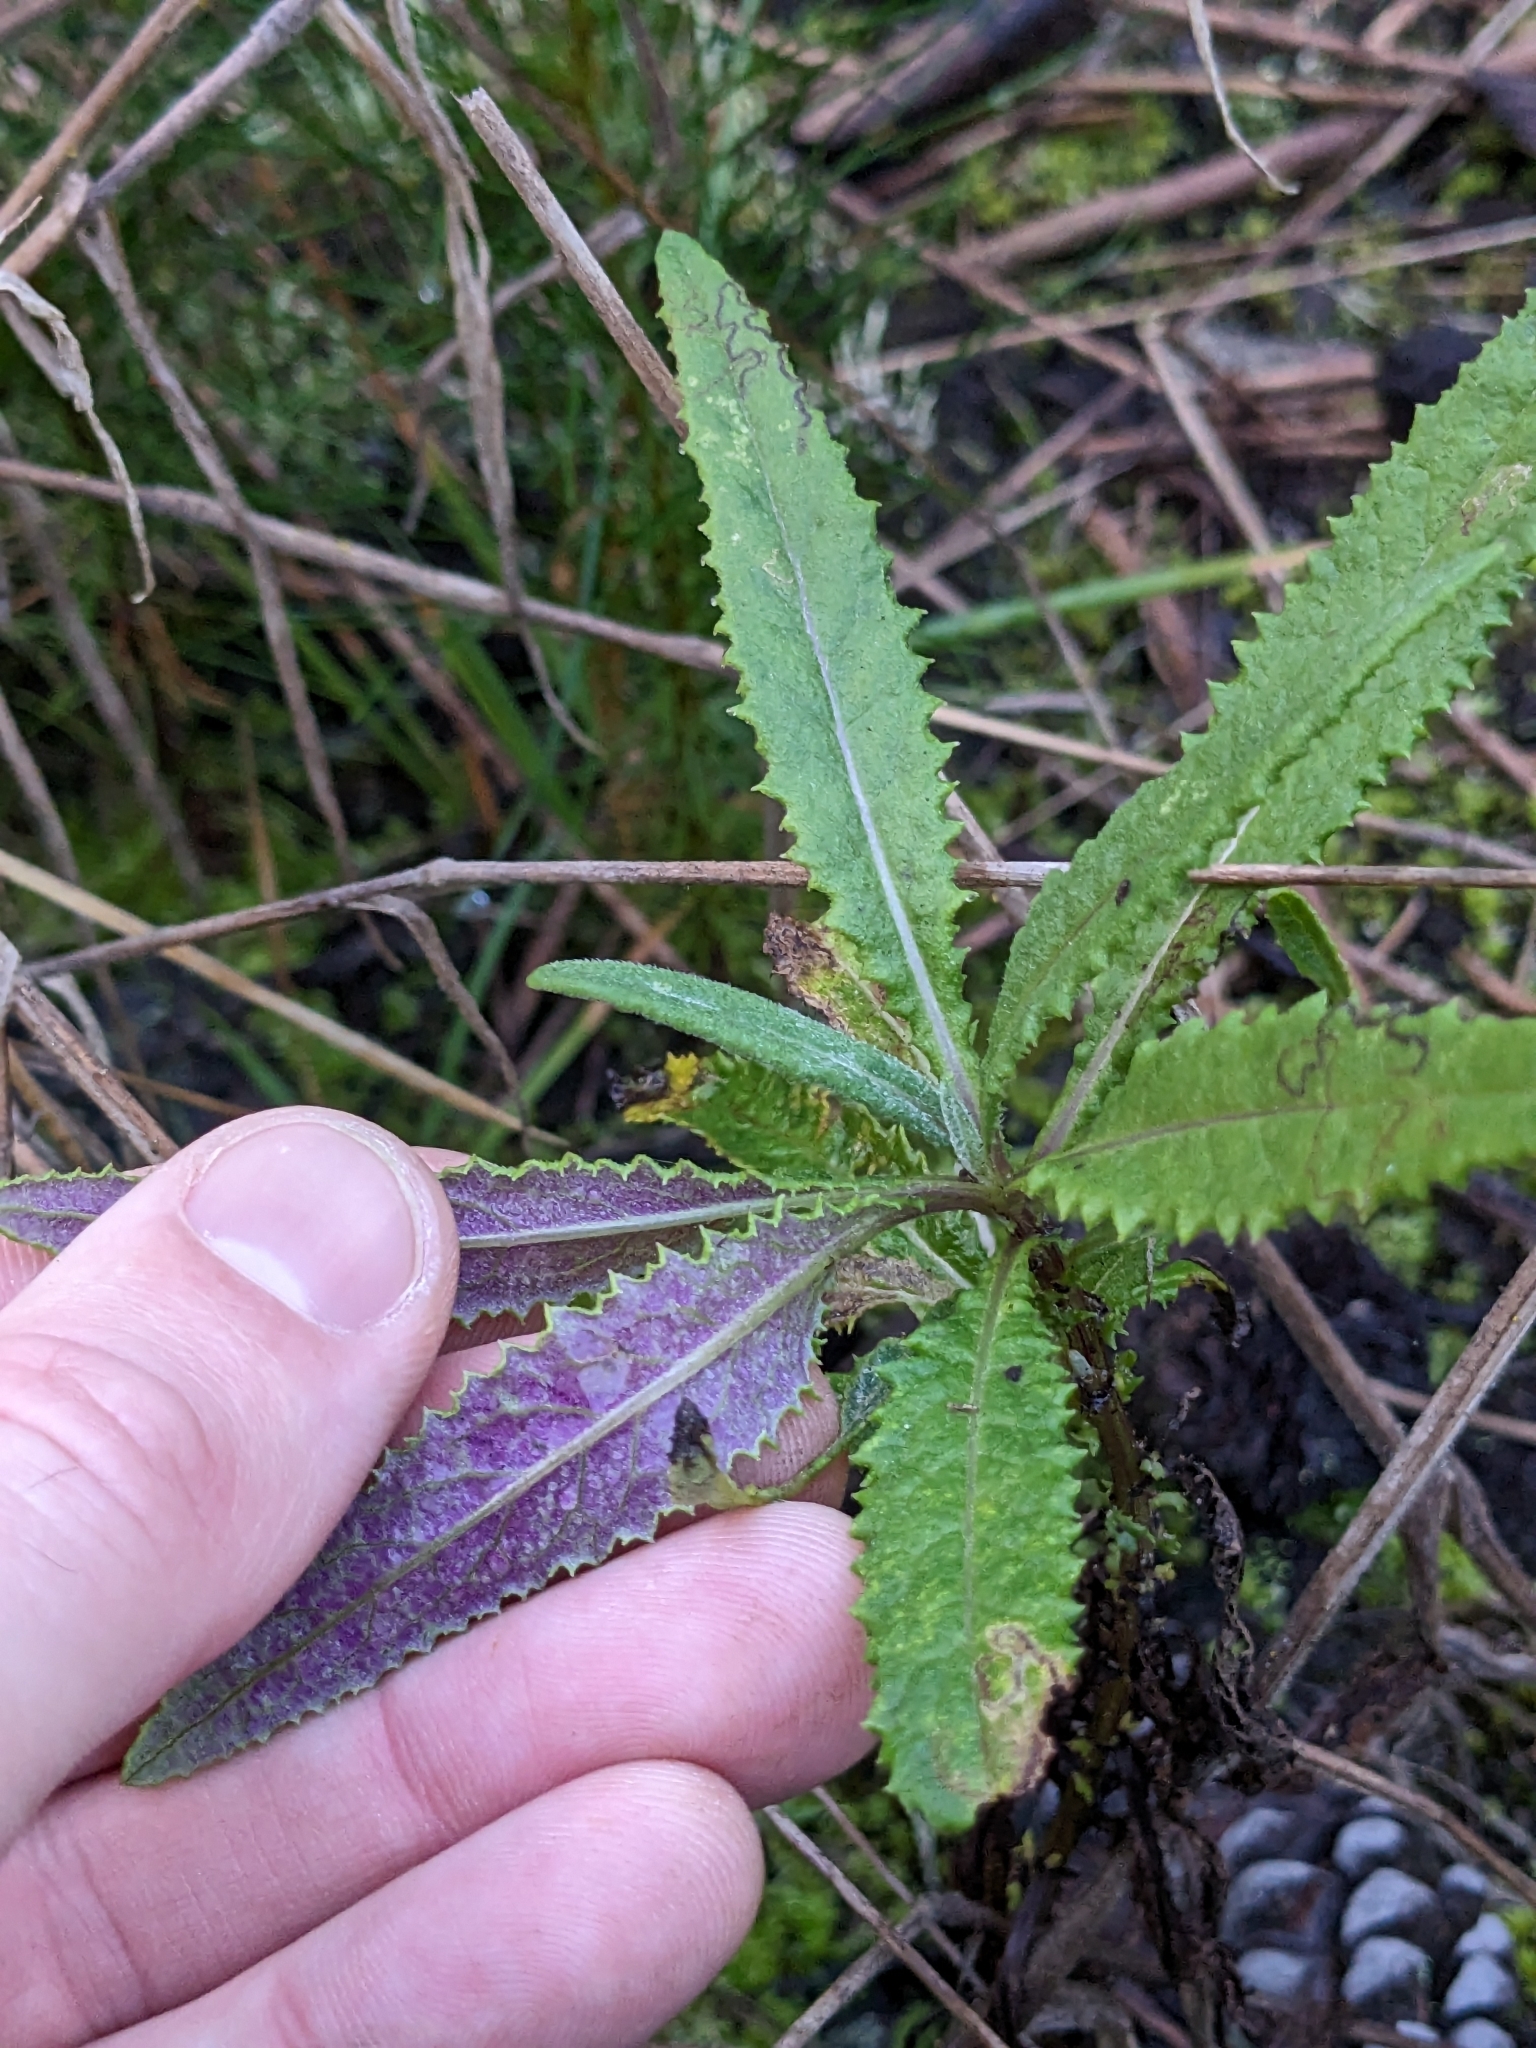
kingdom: Plantae
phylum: Tracheophyta
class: Magnoliopsida
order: Asterales
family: Asteraceae
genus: Senecio
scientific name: Senecio minimus
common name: Toothed fireweed
